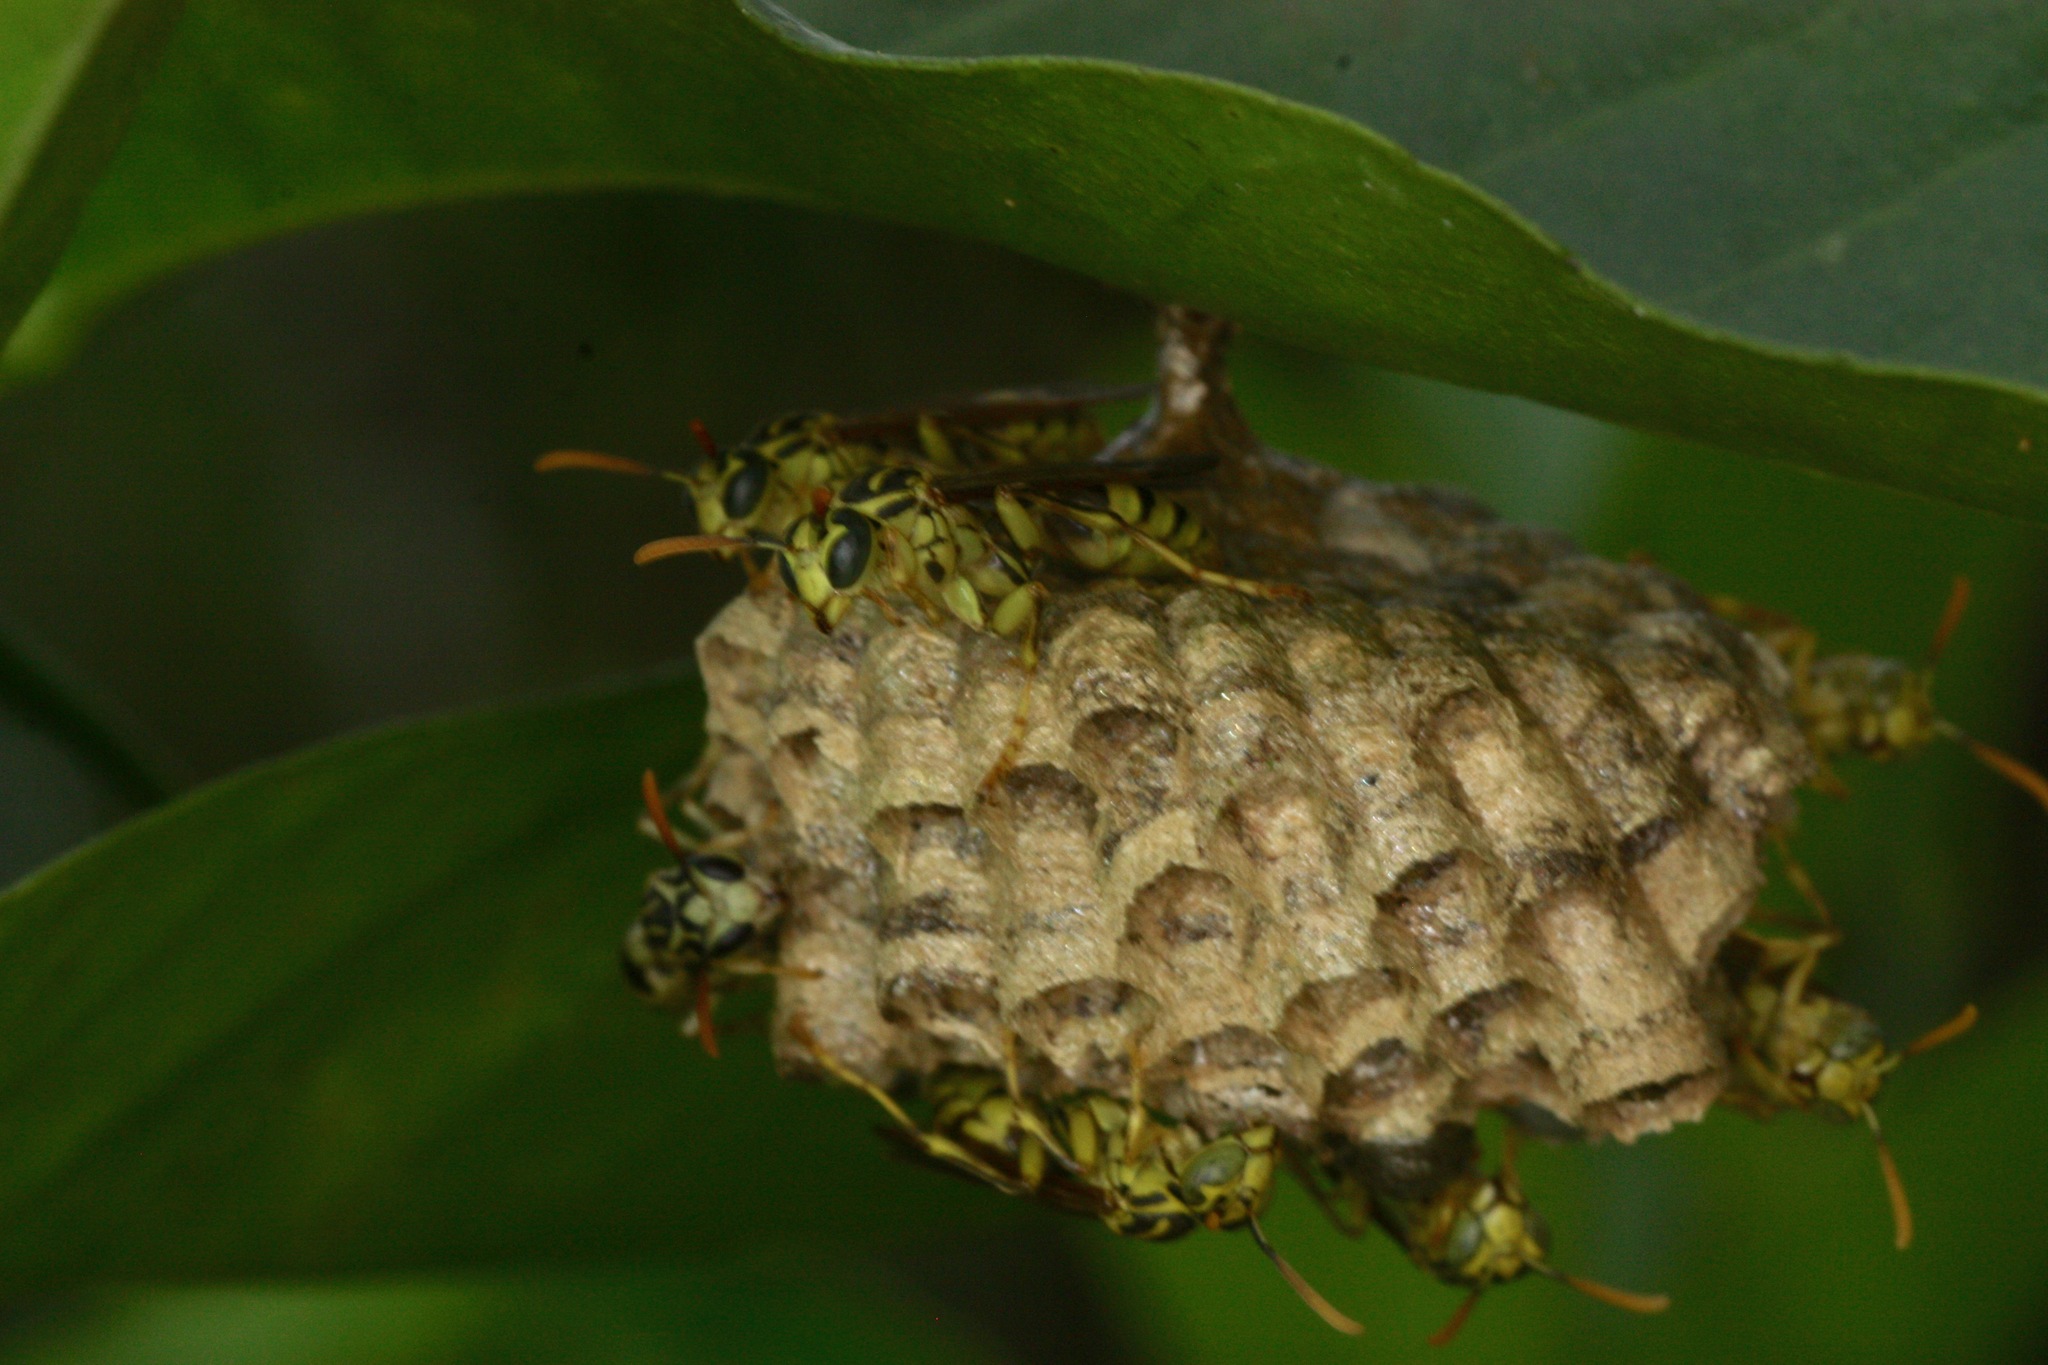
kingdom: Animalia
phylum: Arthropoda
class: Insecta
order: Hymenoptera
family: Vespidae
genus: Mischocyttarus
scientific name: Mischocyttarus basimacula
